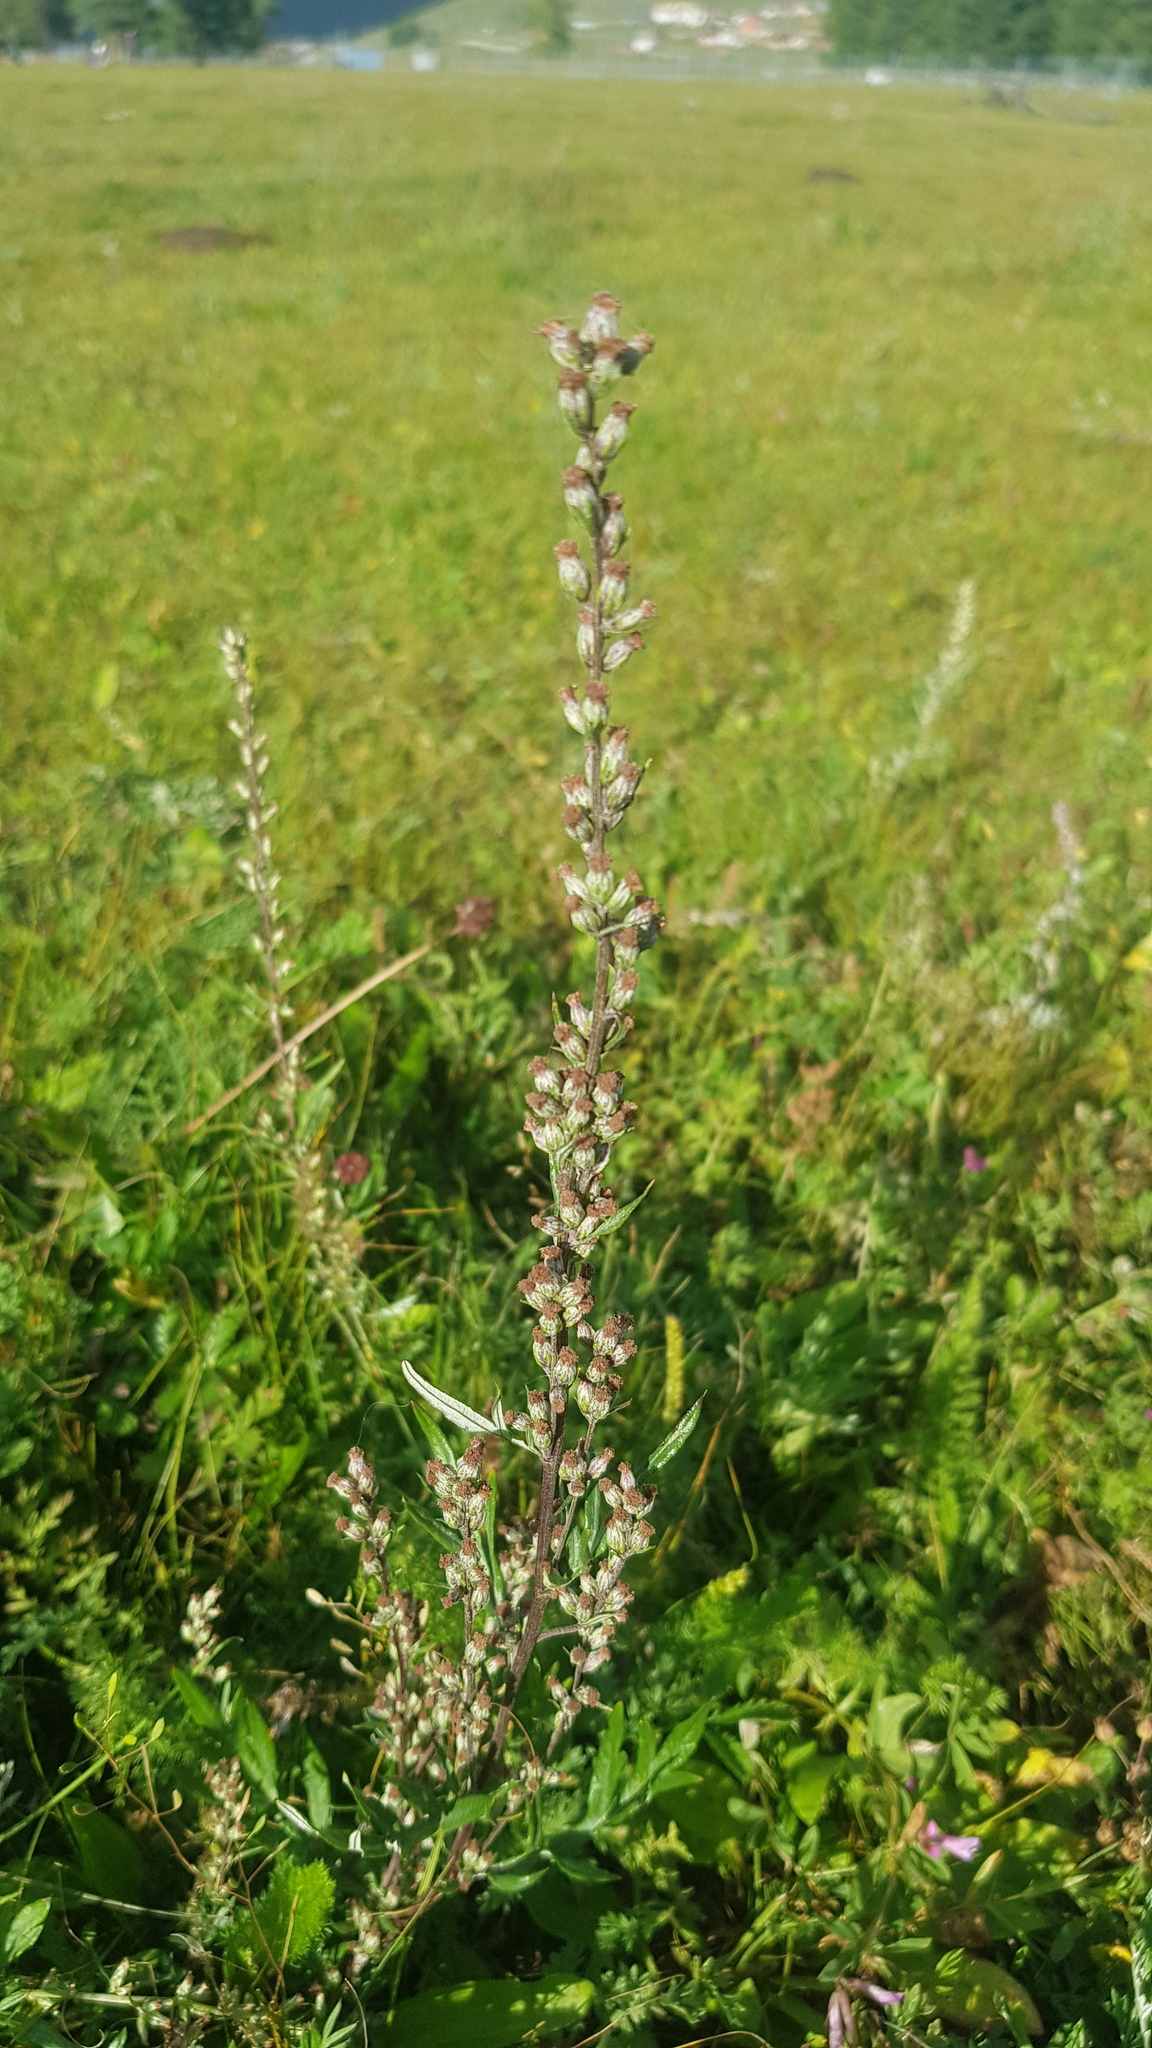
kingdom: Plantae
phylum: Tracheophyta
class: Magnoliopsida
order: Asterales
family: Asteraceae
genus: Artemisia
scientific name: Artemisia vulgaris
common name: Mugwort
